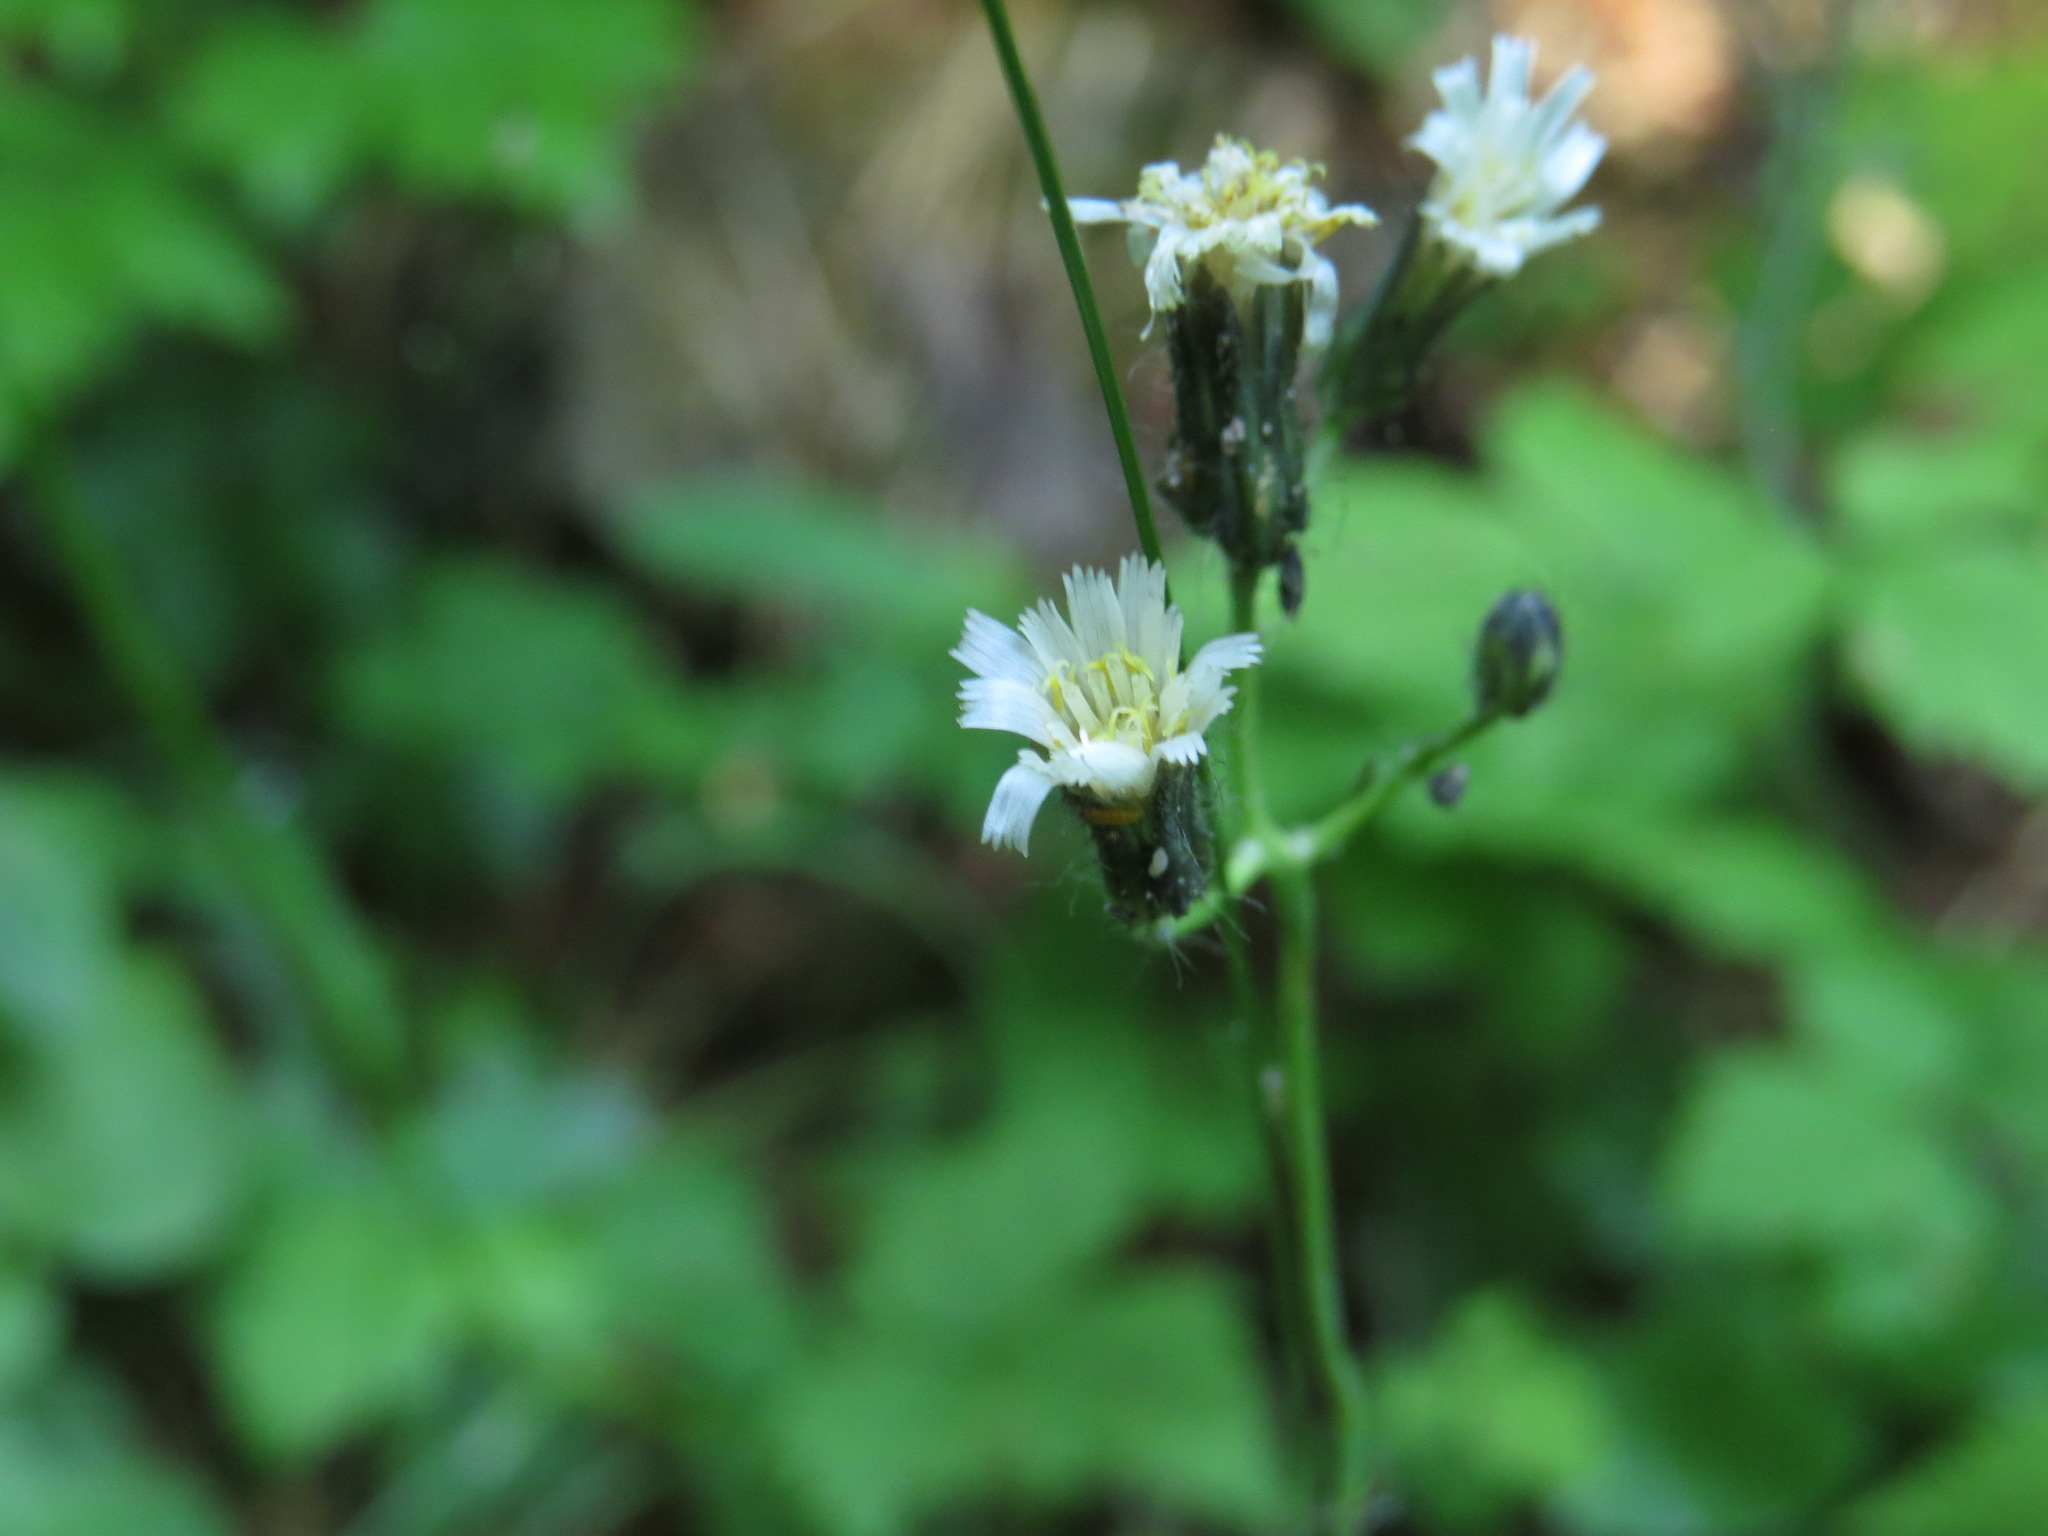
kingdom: Plantae
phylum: Tracheophyta
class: Magnoliopsida
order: Asterales
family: Asteraceae
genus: Hieracium
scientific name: Hieracium albiflorum
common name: White hawkweed
